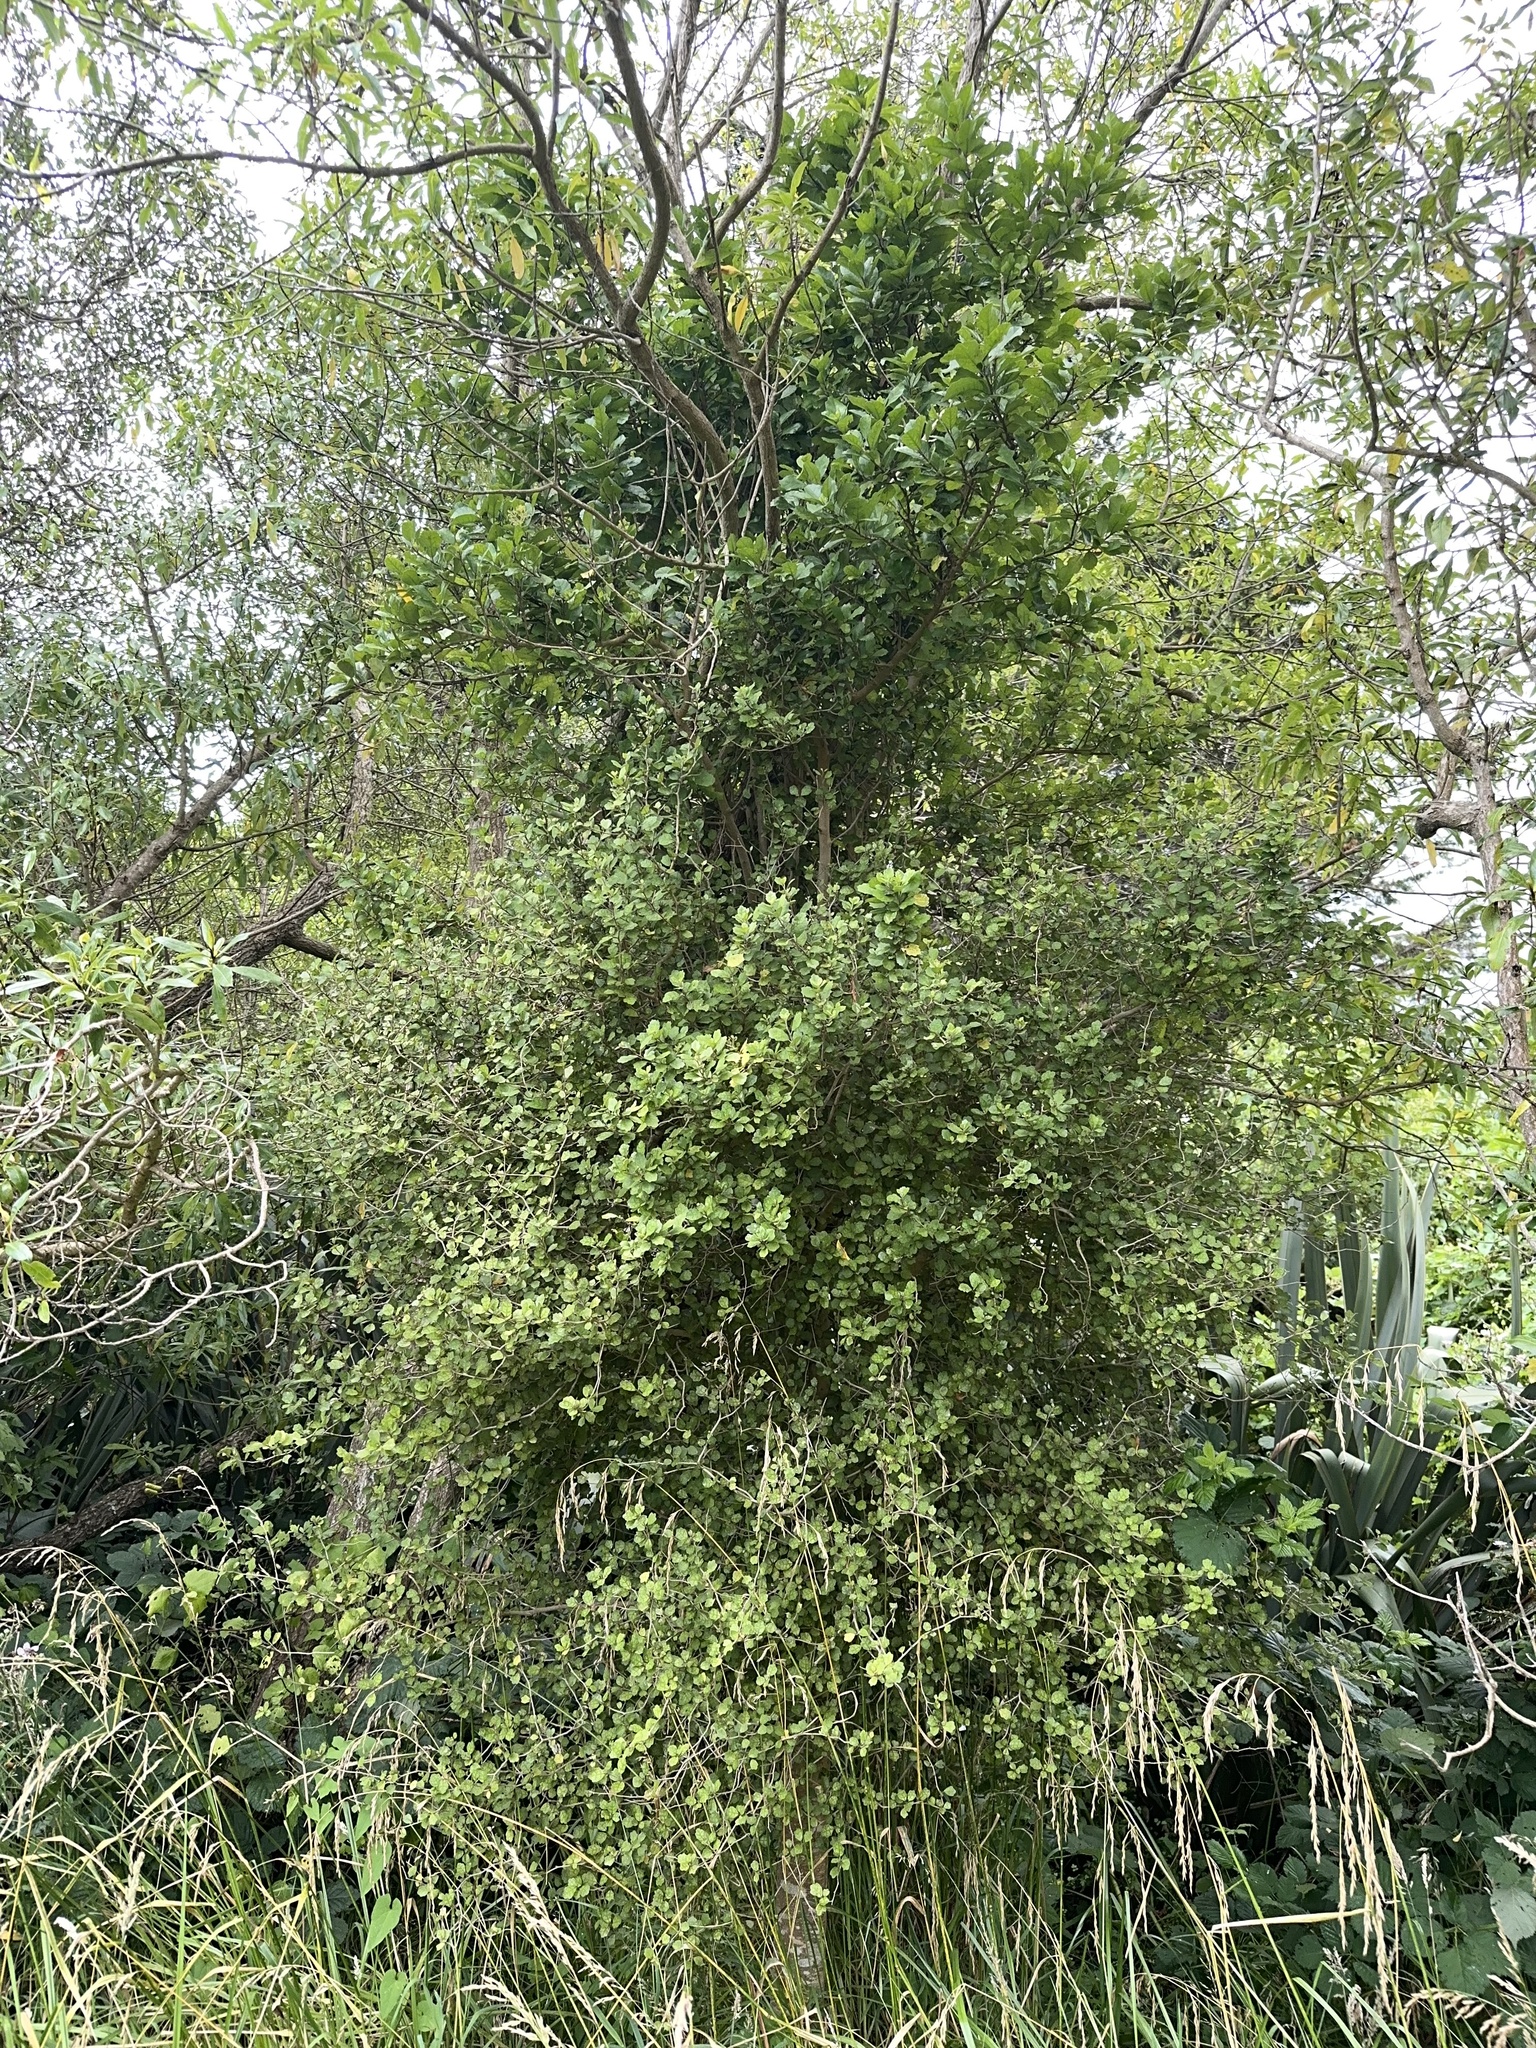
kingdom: Plantae
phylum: Tracheophyta
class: Magnoliopsida
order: Apiales
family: Pennantiaceae
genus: Pennantia
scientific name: Pennantia corymbosa
